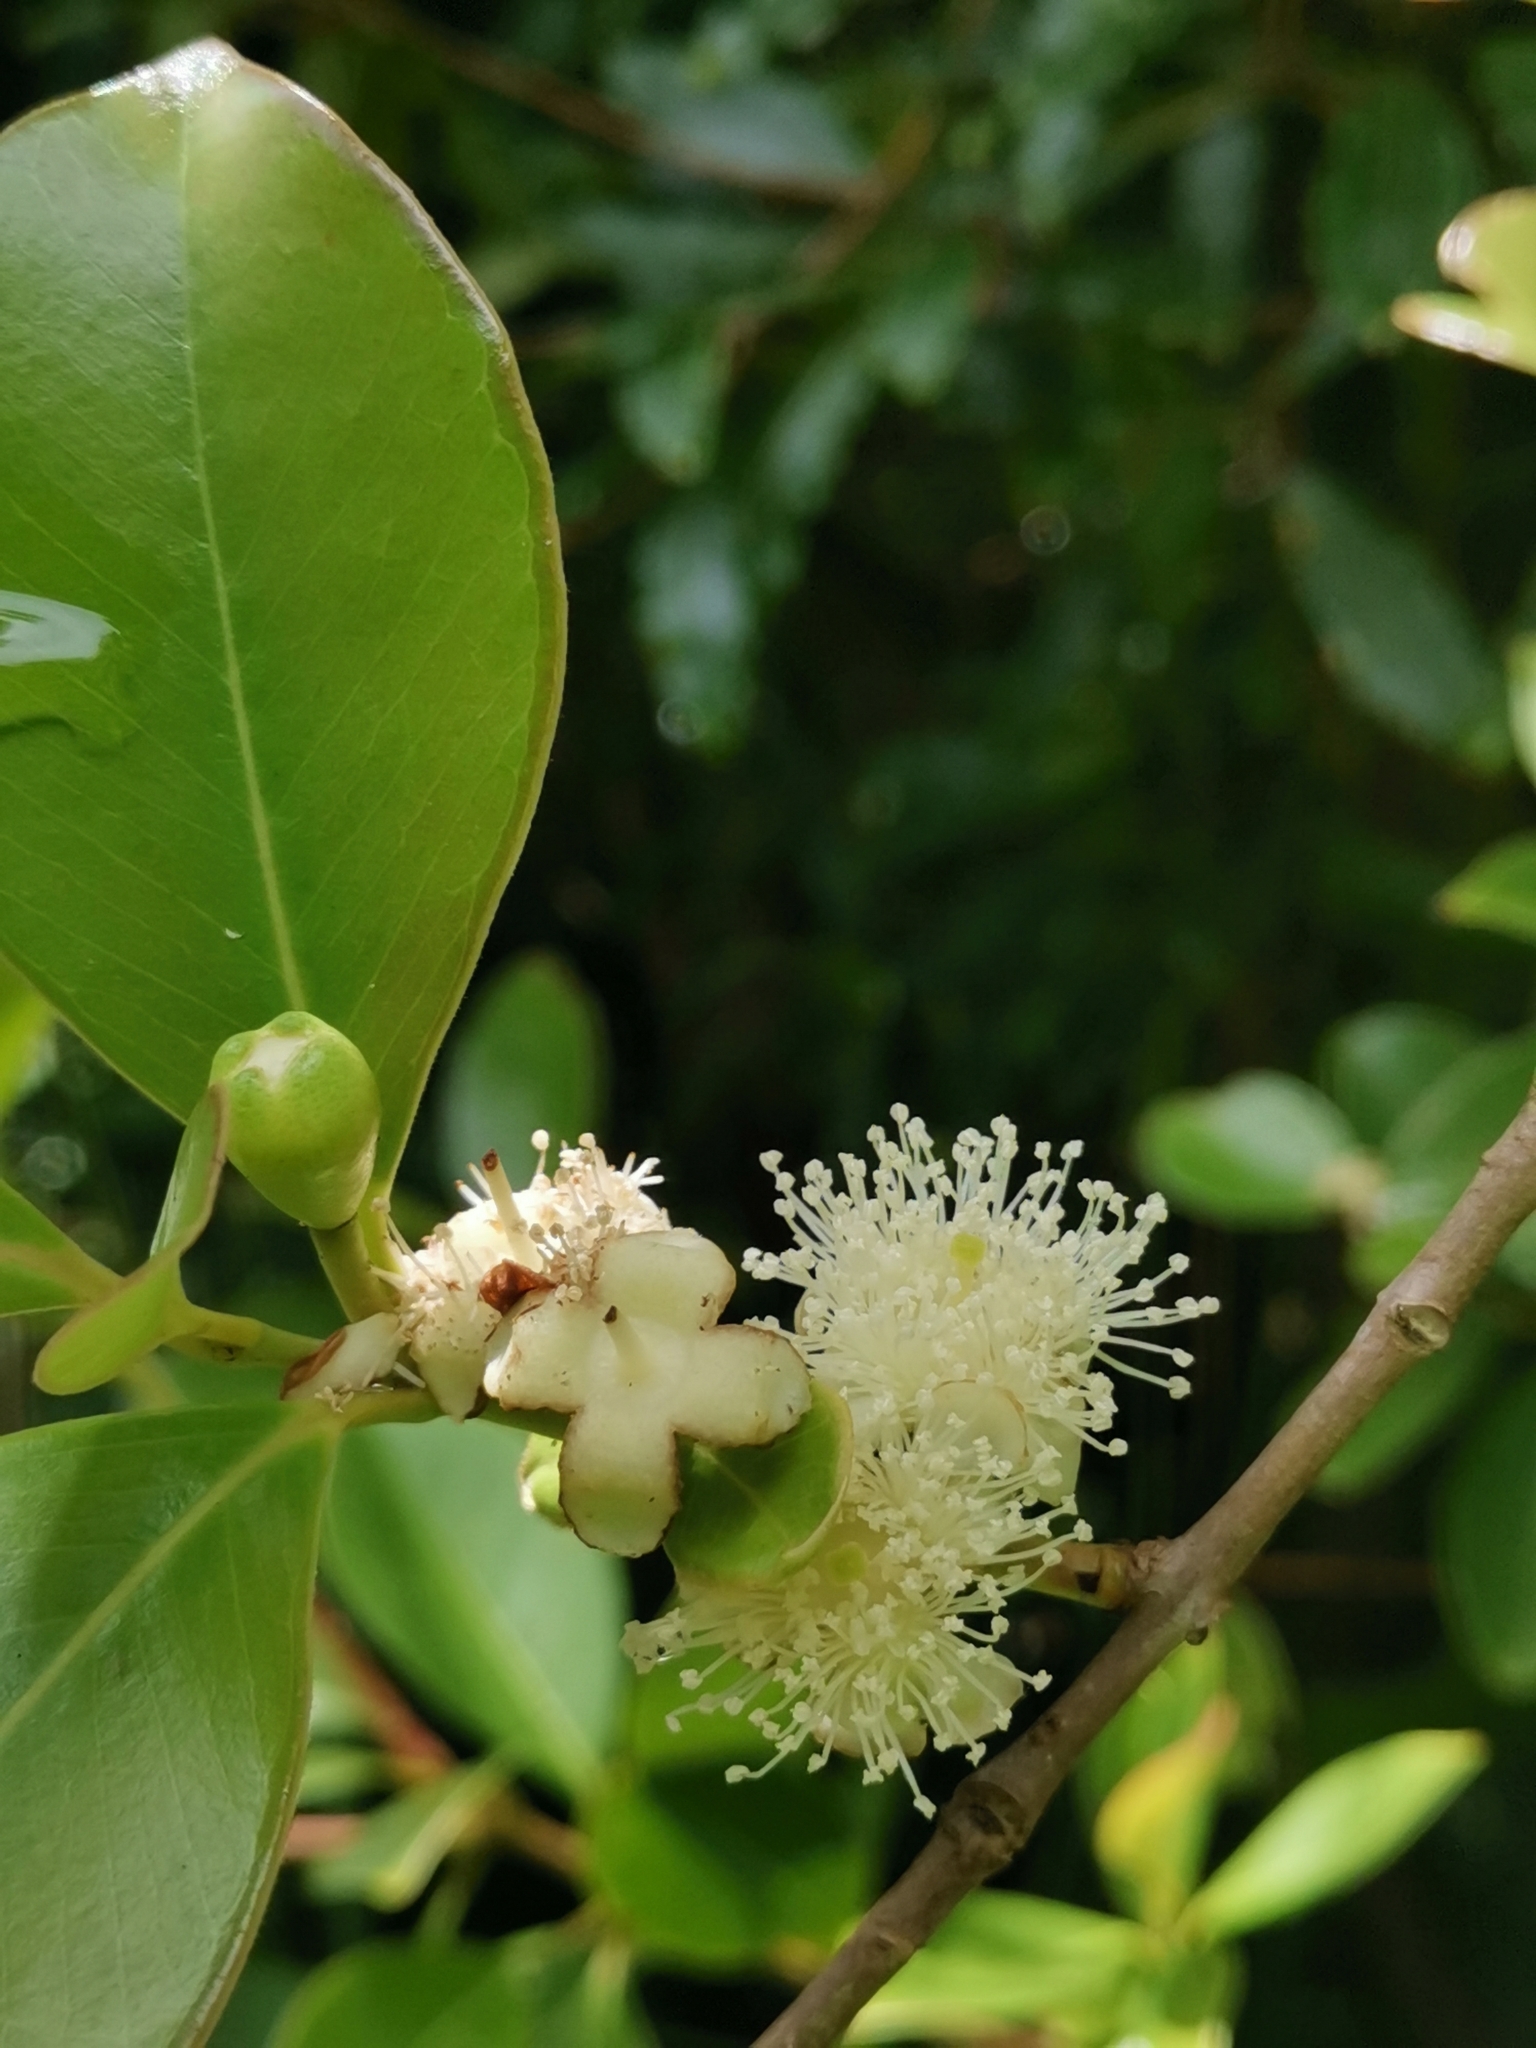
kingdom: Plantae
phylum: Tracheophyta
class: Magnoliopsida
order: Myrtales
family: Myrtaceae
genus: Psidium
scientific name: Psidium cattleianum
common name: Strawberry guava
